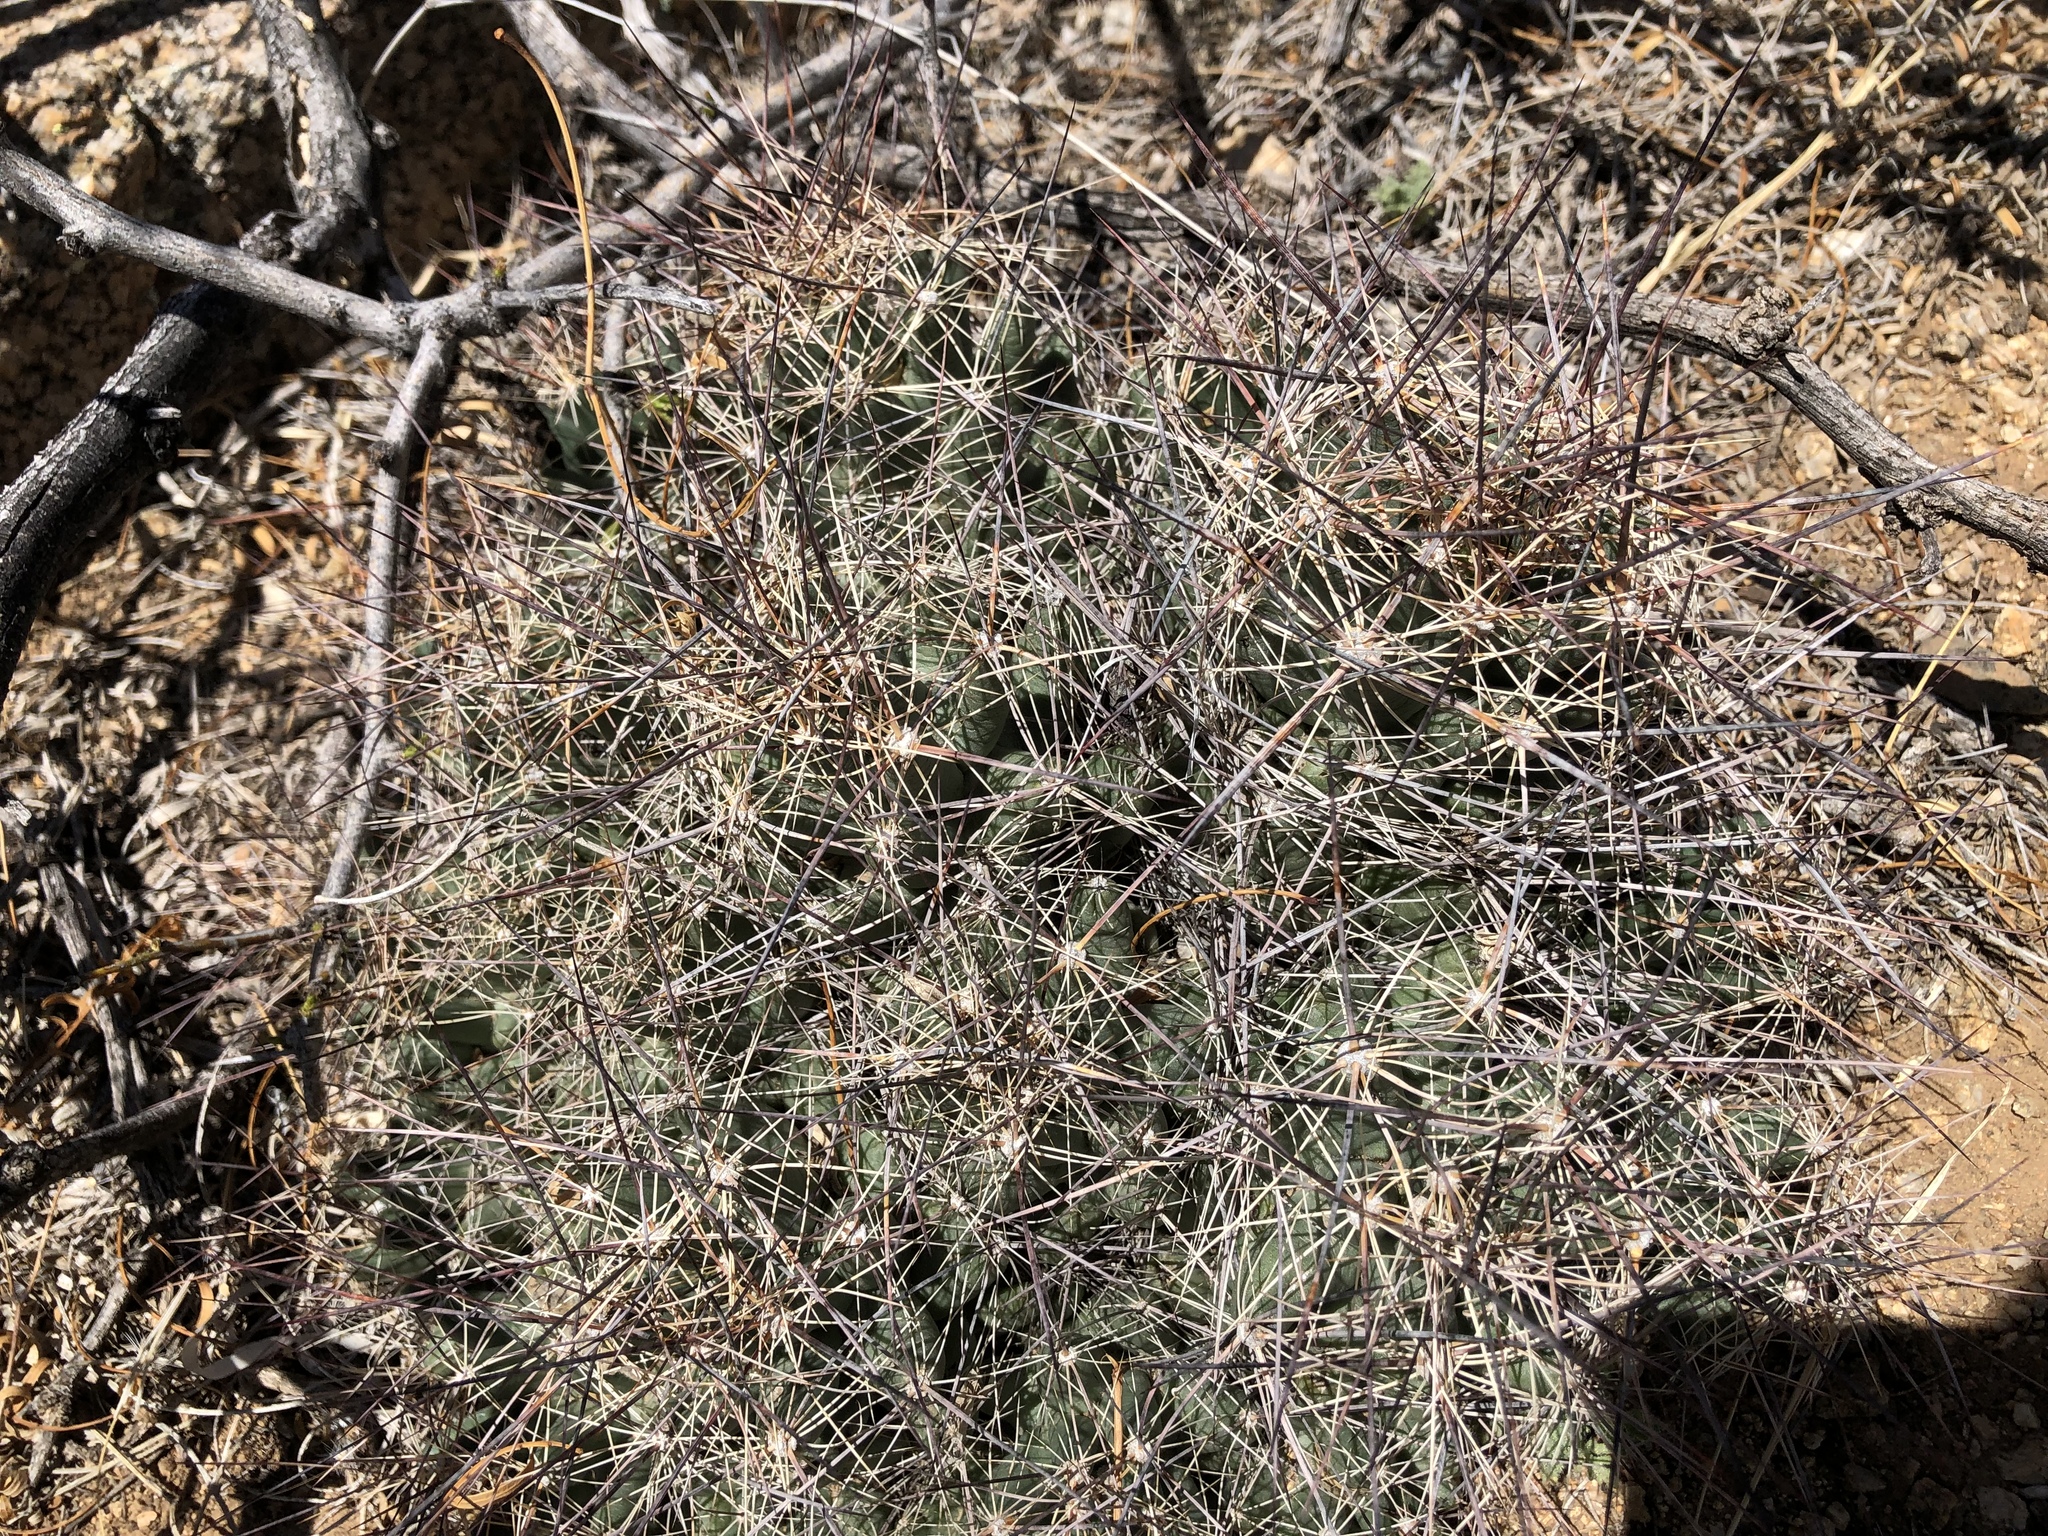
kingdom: Plantae
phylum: Tracheophyta
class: Magnoliopsida
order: Caryophyllales
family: Cactaceae
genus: Coryphantha
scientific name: Coryphantha macromeris
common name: Nipple beehive cactus
